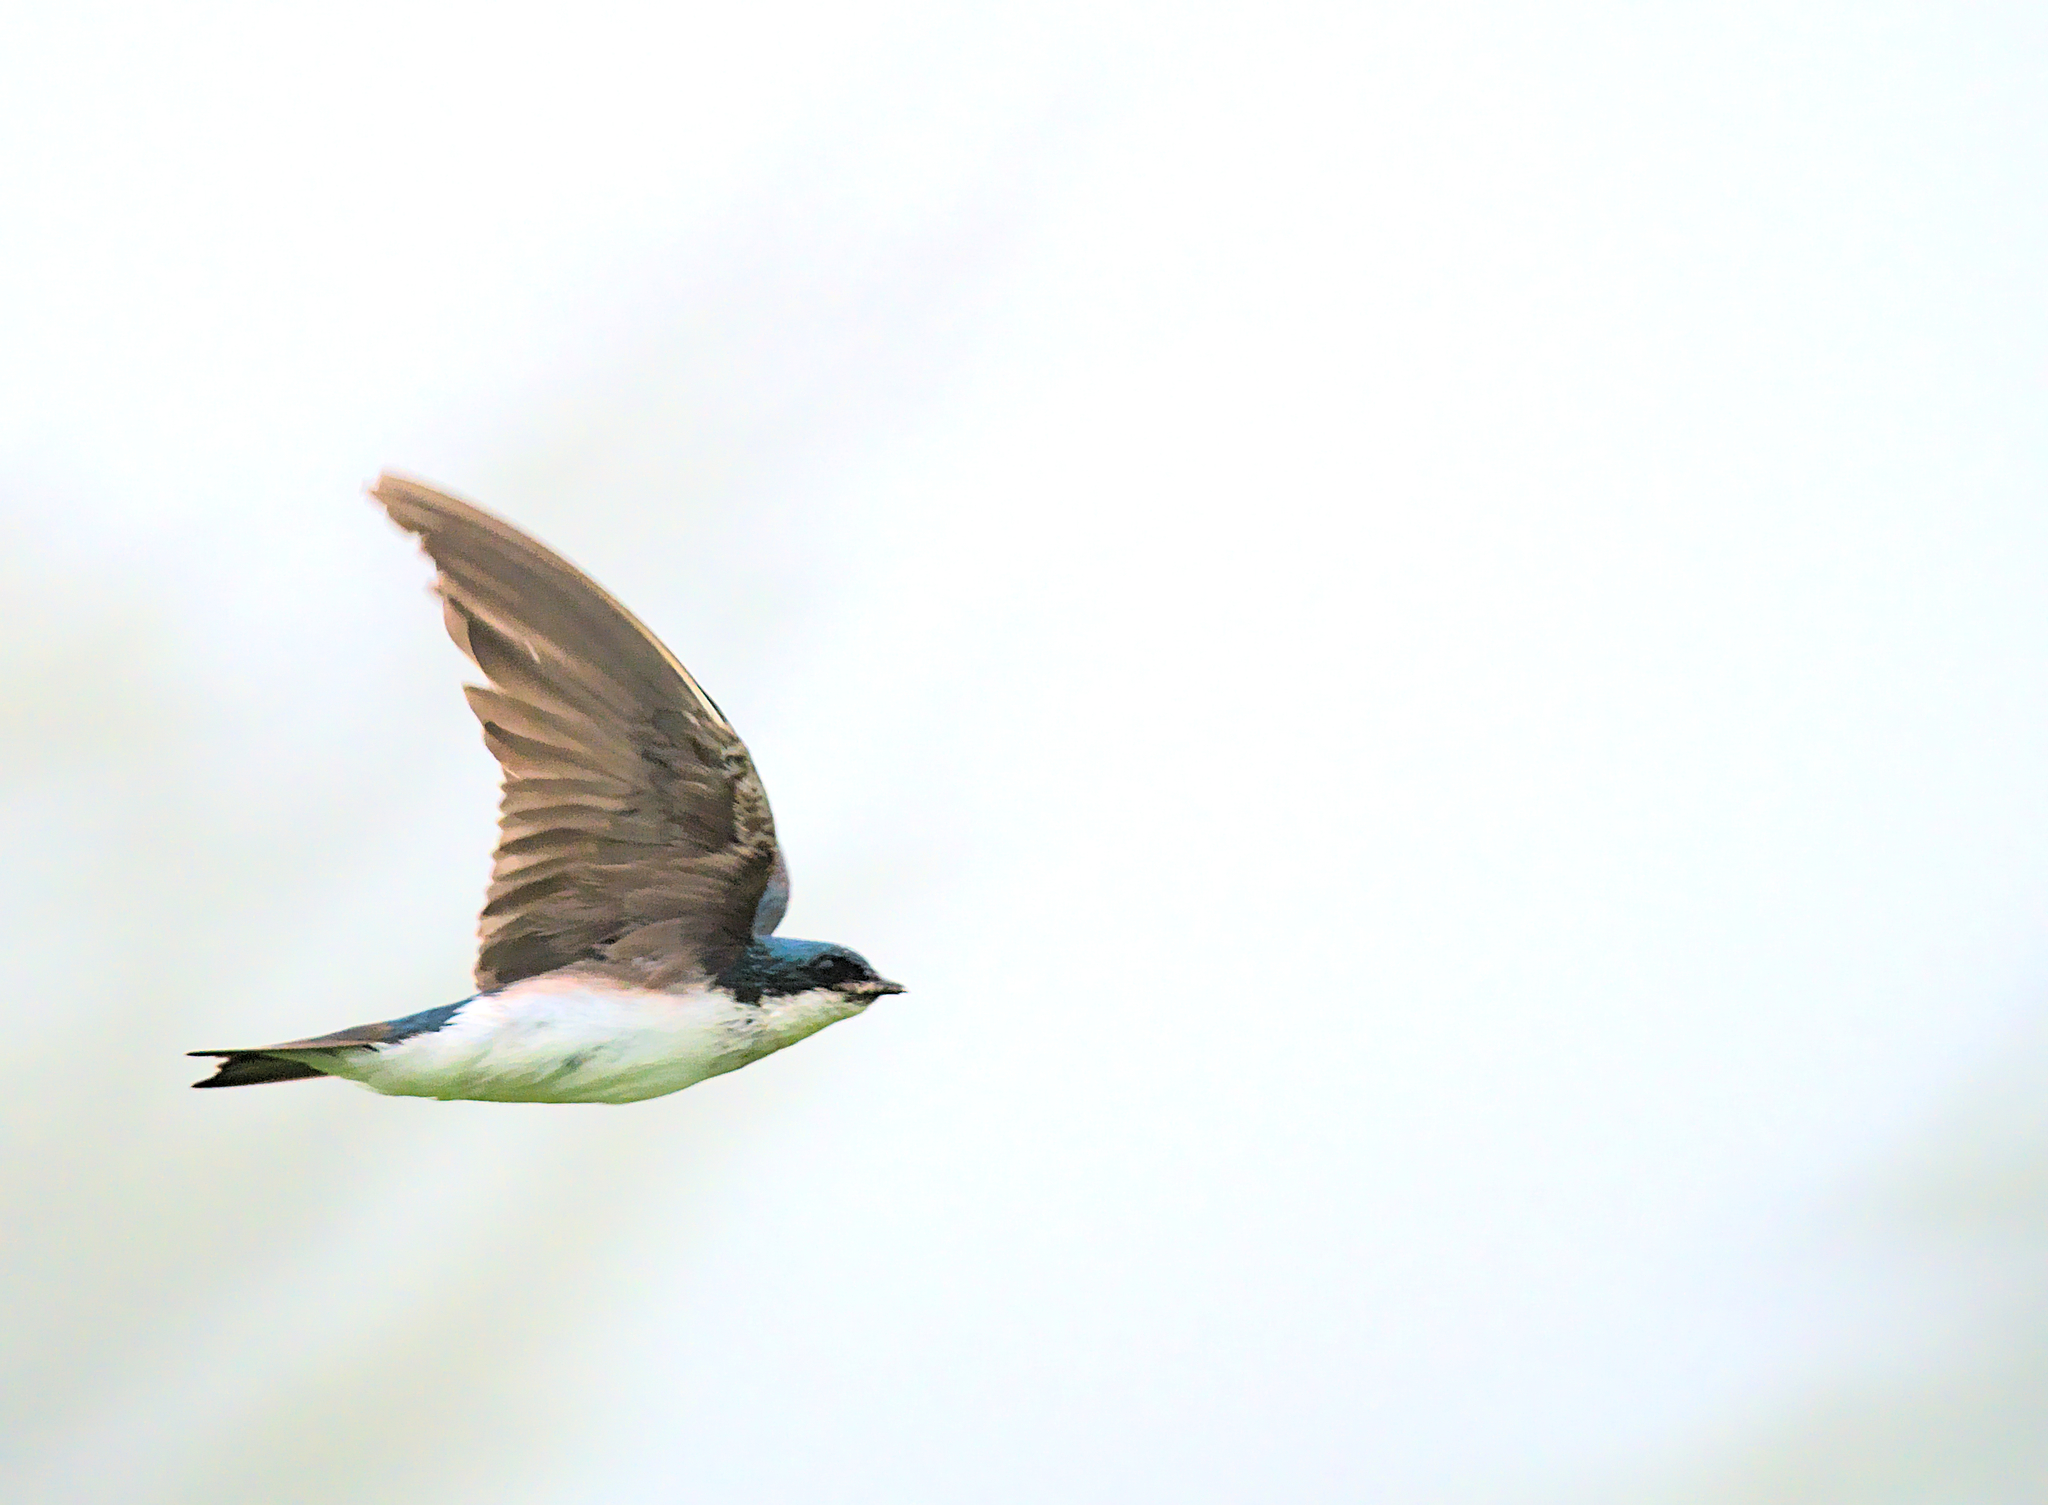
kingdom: Animalia
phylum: Chordata
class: Aves
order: Passeriformes
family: Hirundinidae
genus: Tachycineta
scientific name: Tachycineta bicolor
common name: Tree swallow
